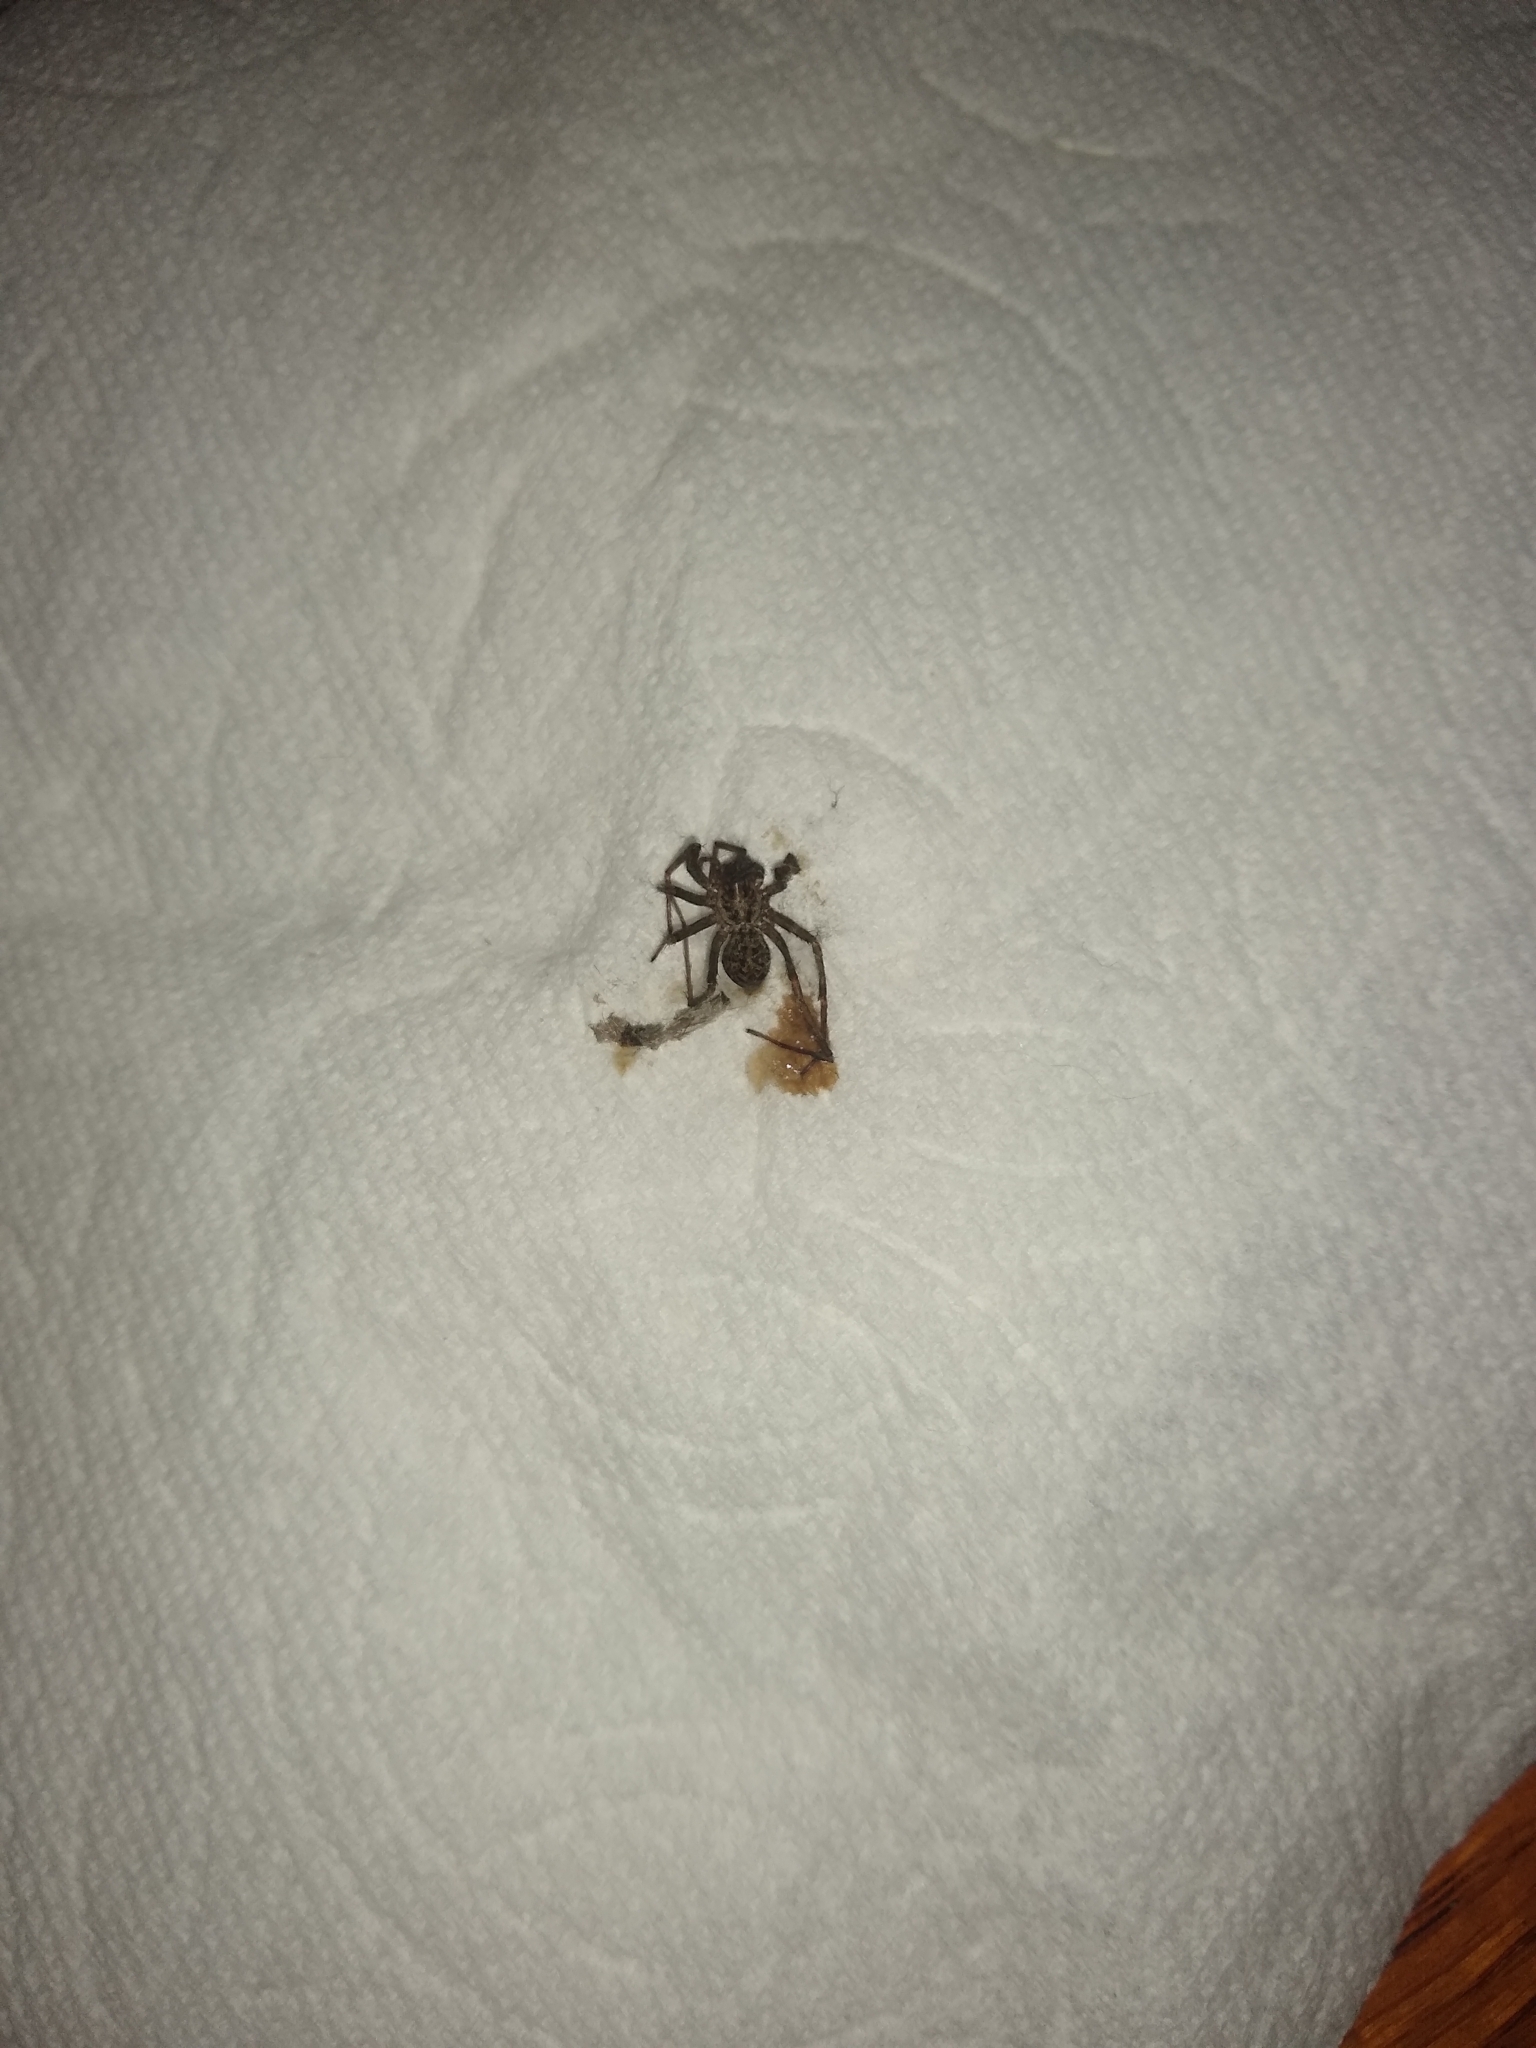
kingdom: Animalia
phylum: Arthropoda
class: Arachnida
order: Araneae
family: Agelenidae
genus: Eratigena
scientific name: Eratigena duellica
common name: Giant house spider
